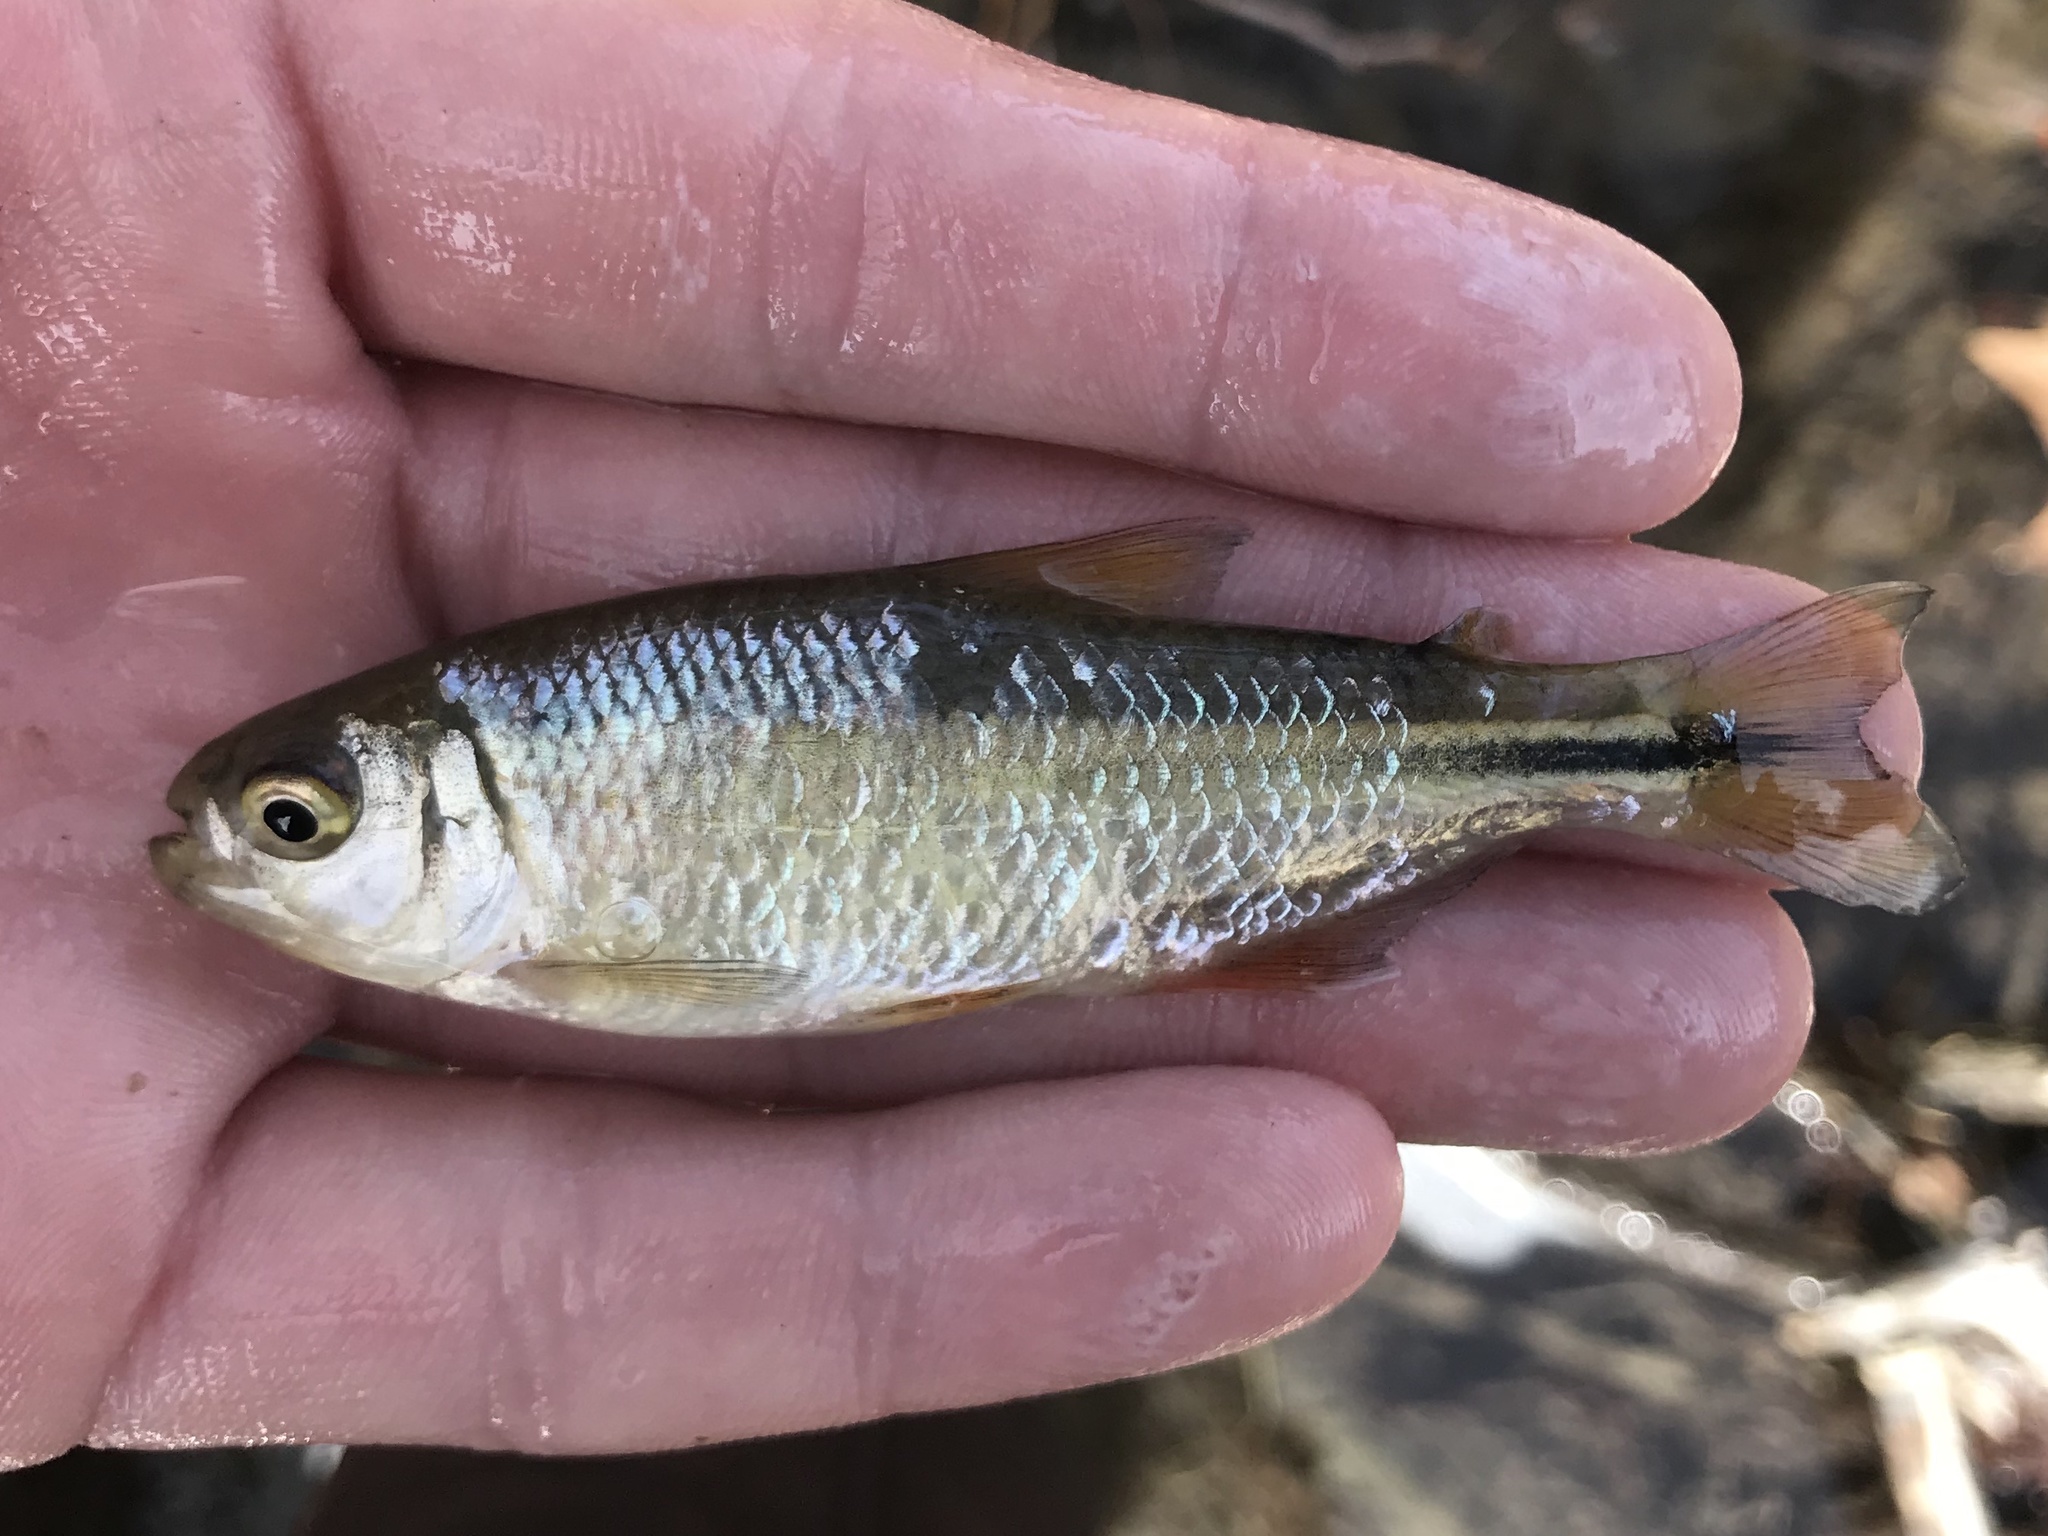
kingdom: Animalia
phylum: Chordata
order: Characiformes
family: Characidae
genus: Astyanax
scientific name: Astyanax mexicanus
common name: Mexican tetra
